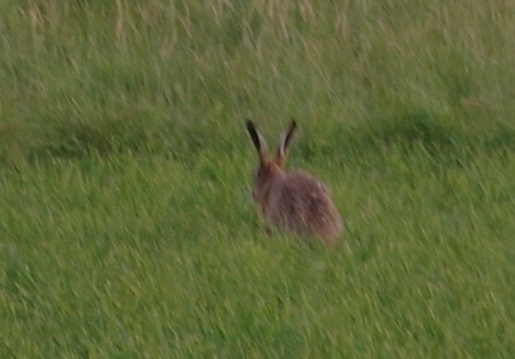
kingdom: Animalia
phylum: Chordata
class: Mammalia
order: Lagomorpha
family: Leporidae
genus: Lepus
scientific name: Lepus europaeus
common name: European hare
